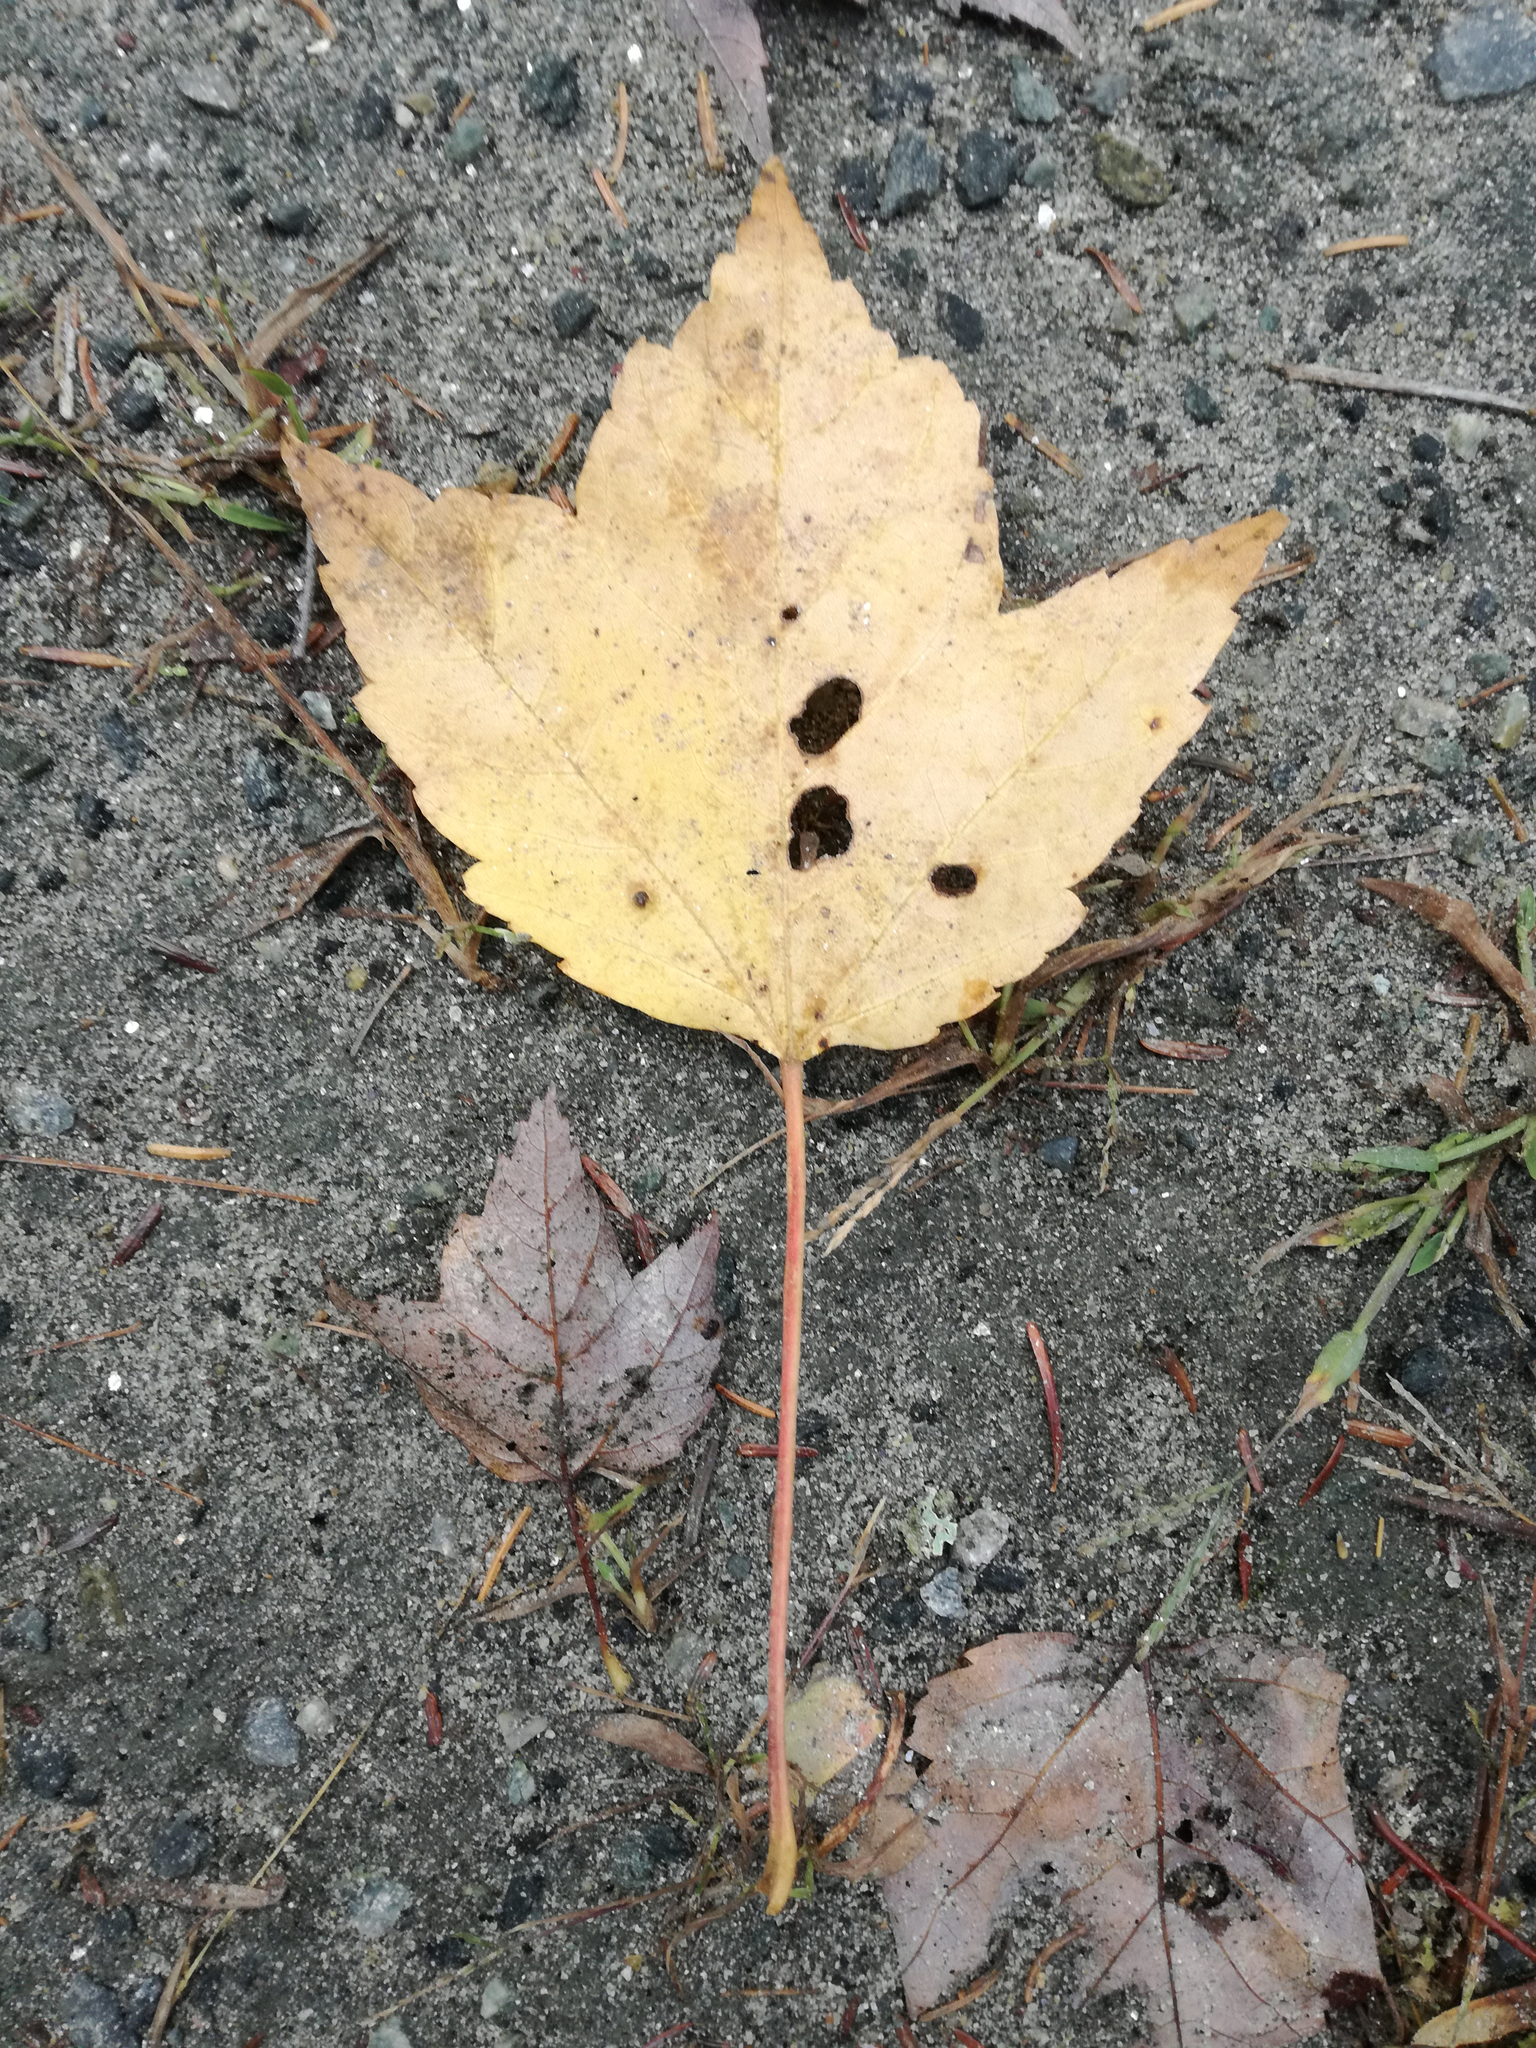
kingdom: Plantae
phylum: Tracheophyta
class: Magnoliopsida
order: Sapindales
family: Sapindaceae
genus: Acer
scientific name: Acer rubrum
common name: Red maple
